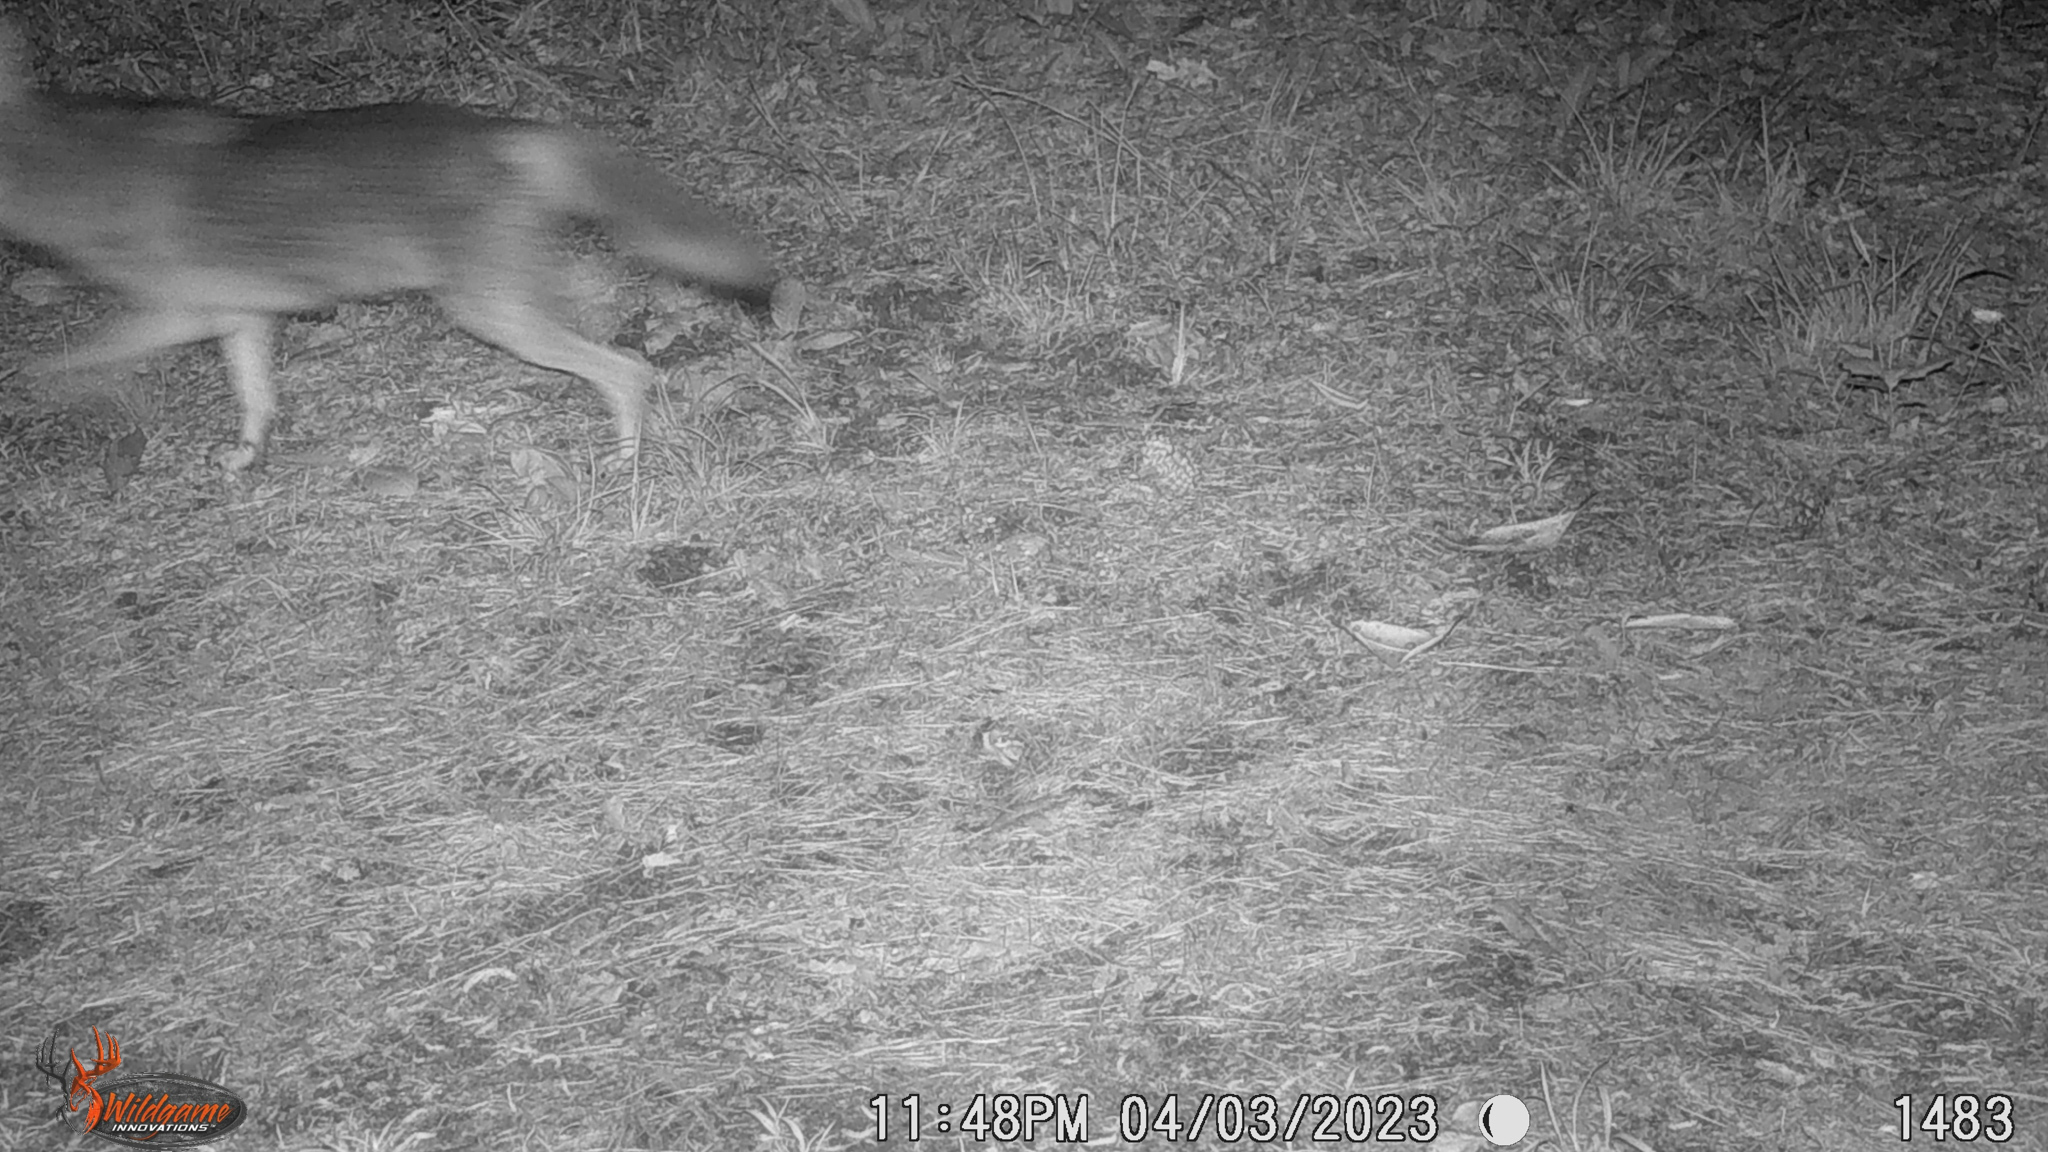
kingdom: Animalia
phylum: Chordata
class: Mammalia
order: Carnivora
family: Canidae
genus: Canis
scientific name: Canis latrans
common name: Coyote
